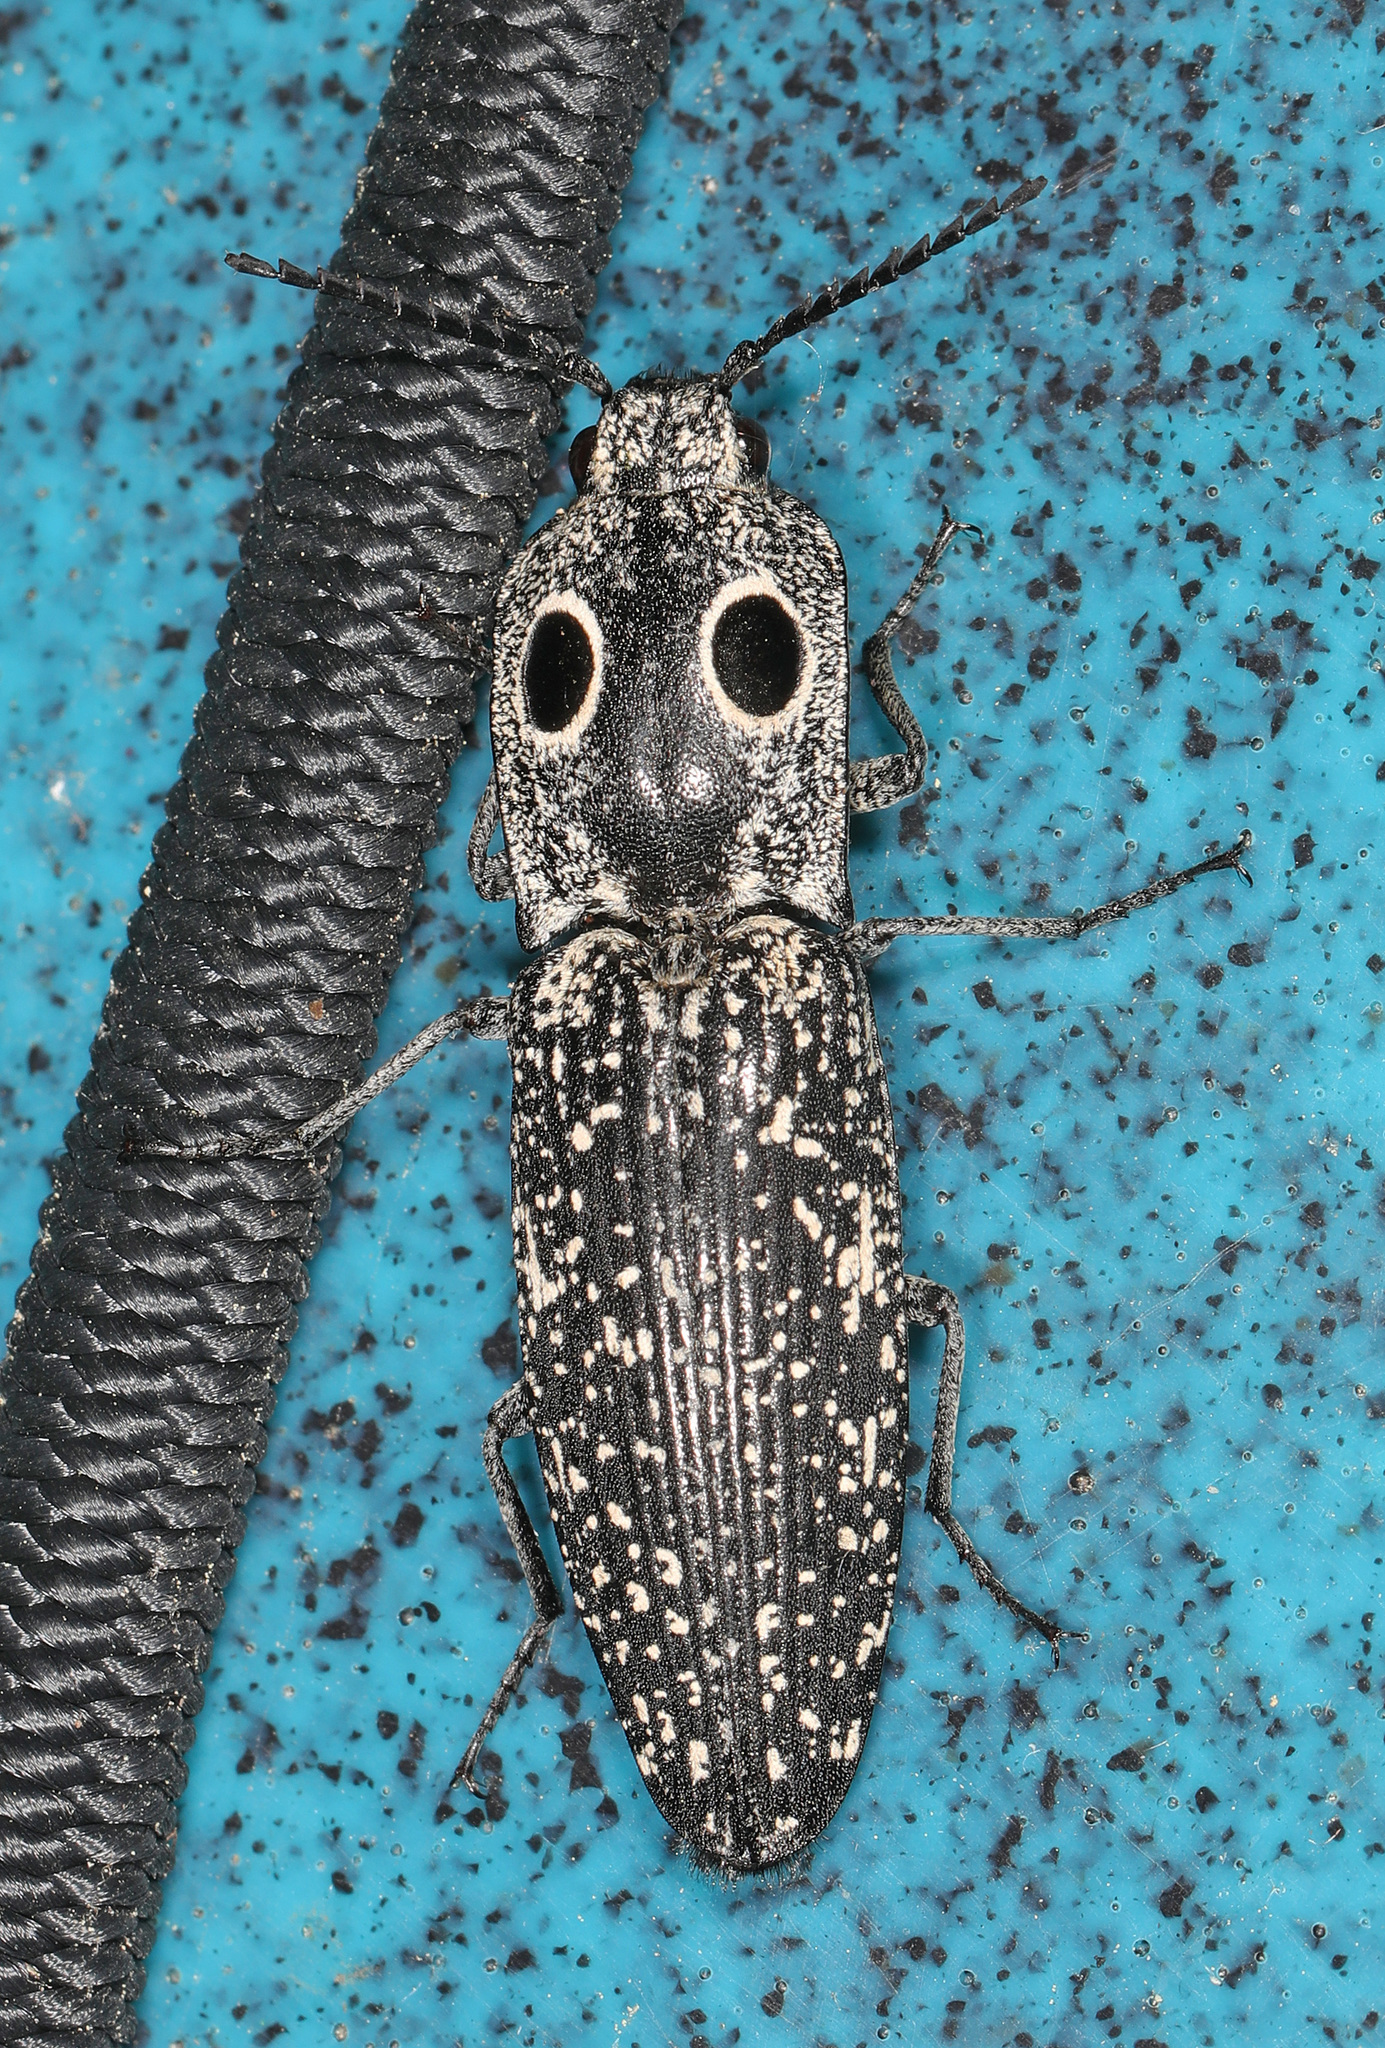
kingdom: Animalia
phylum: Arthropoda
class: Insecta
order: Coleoptera
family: Elateridae
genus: Alaus
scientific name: Alaus oculatus
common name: Eastern eyed click beetle
